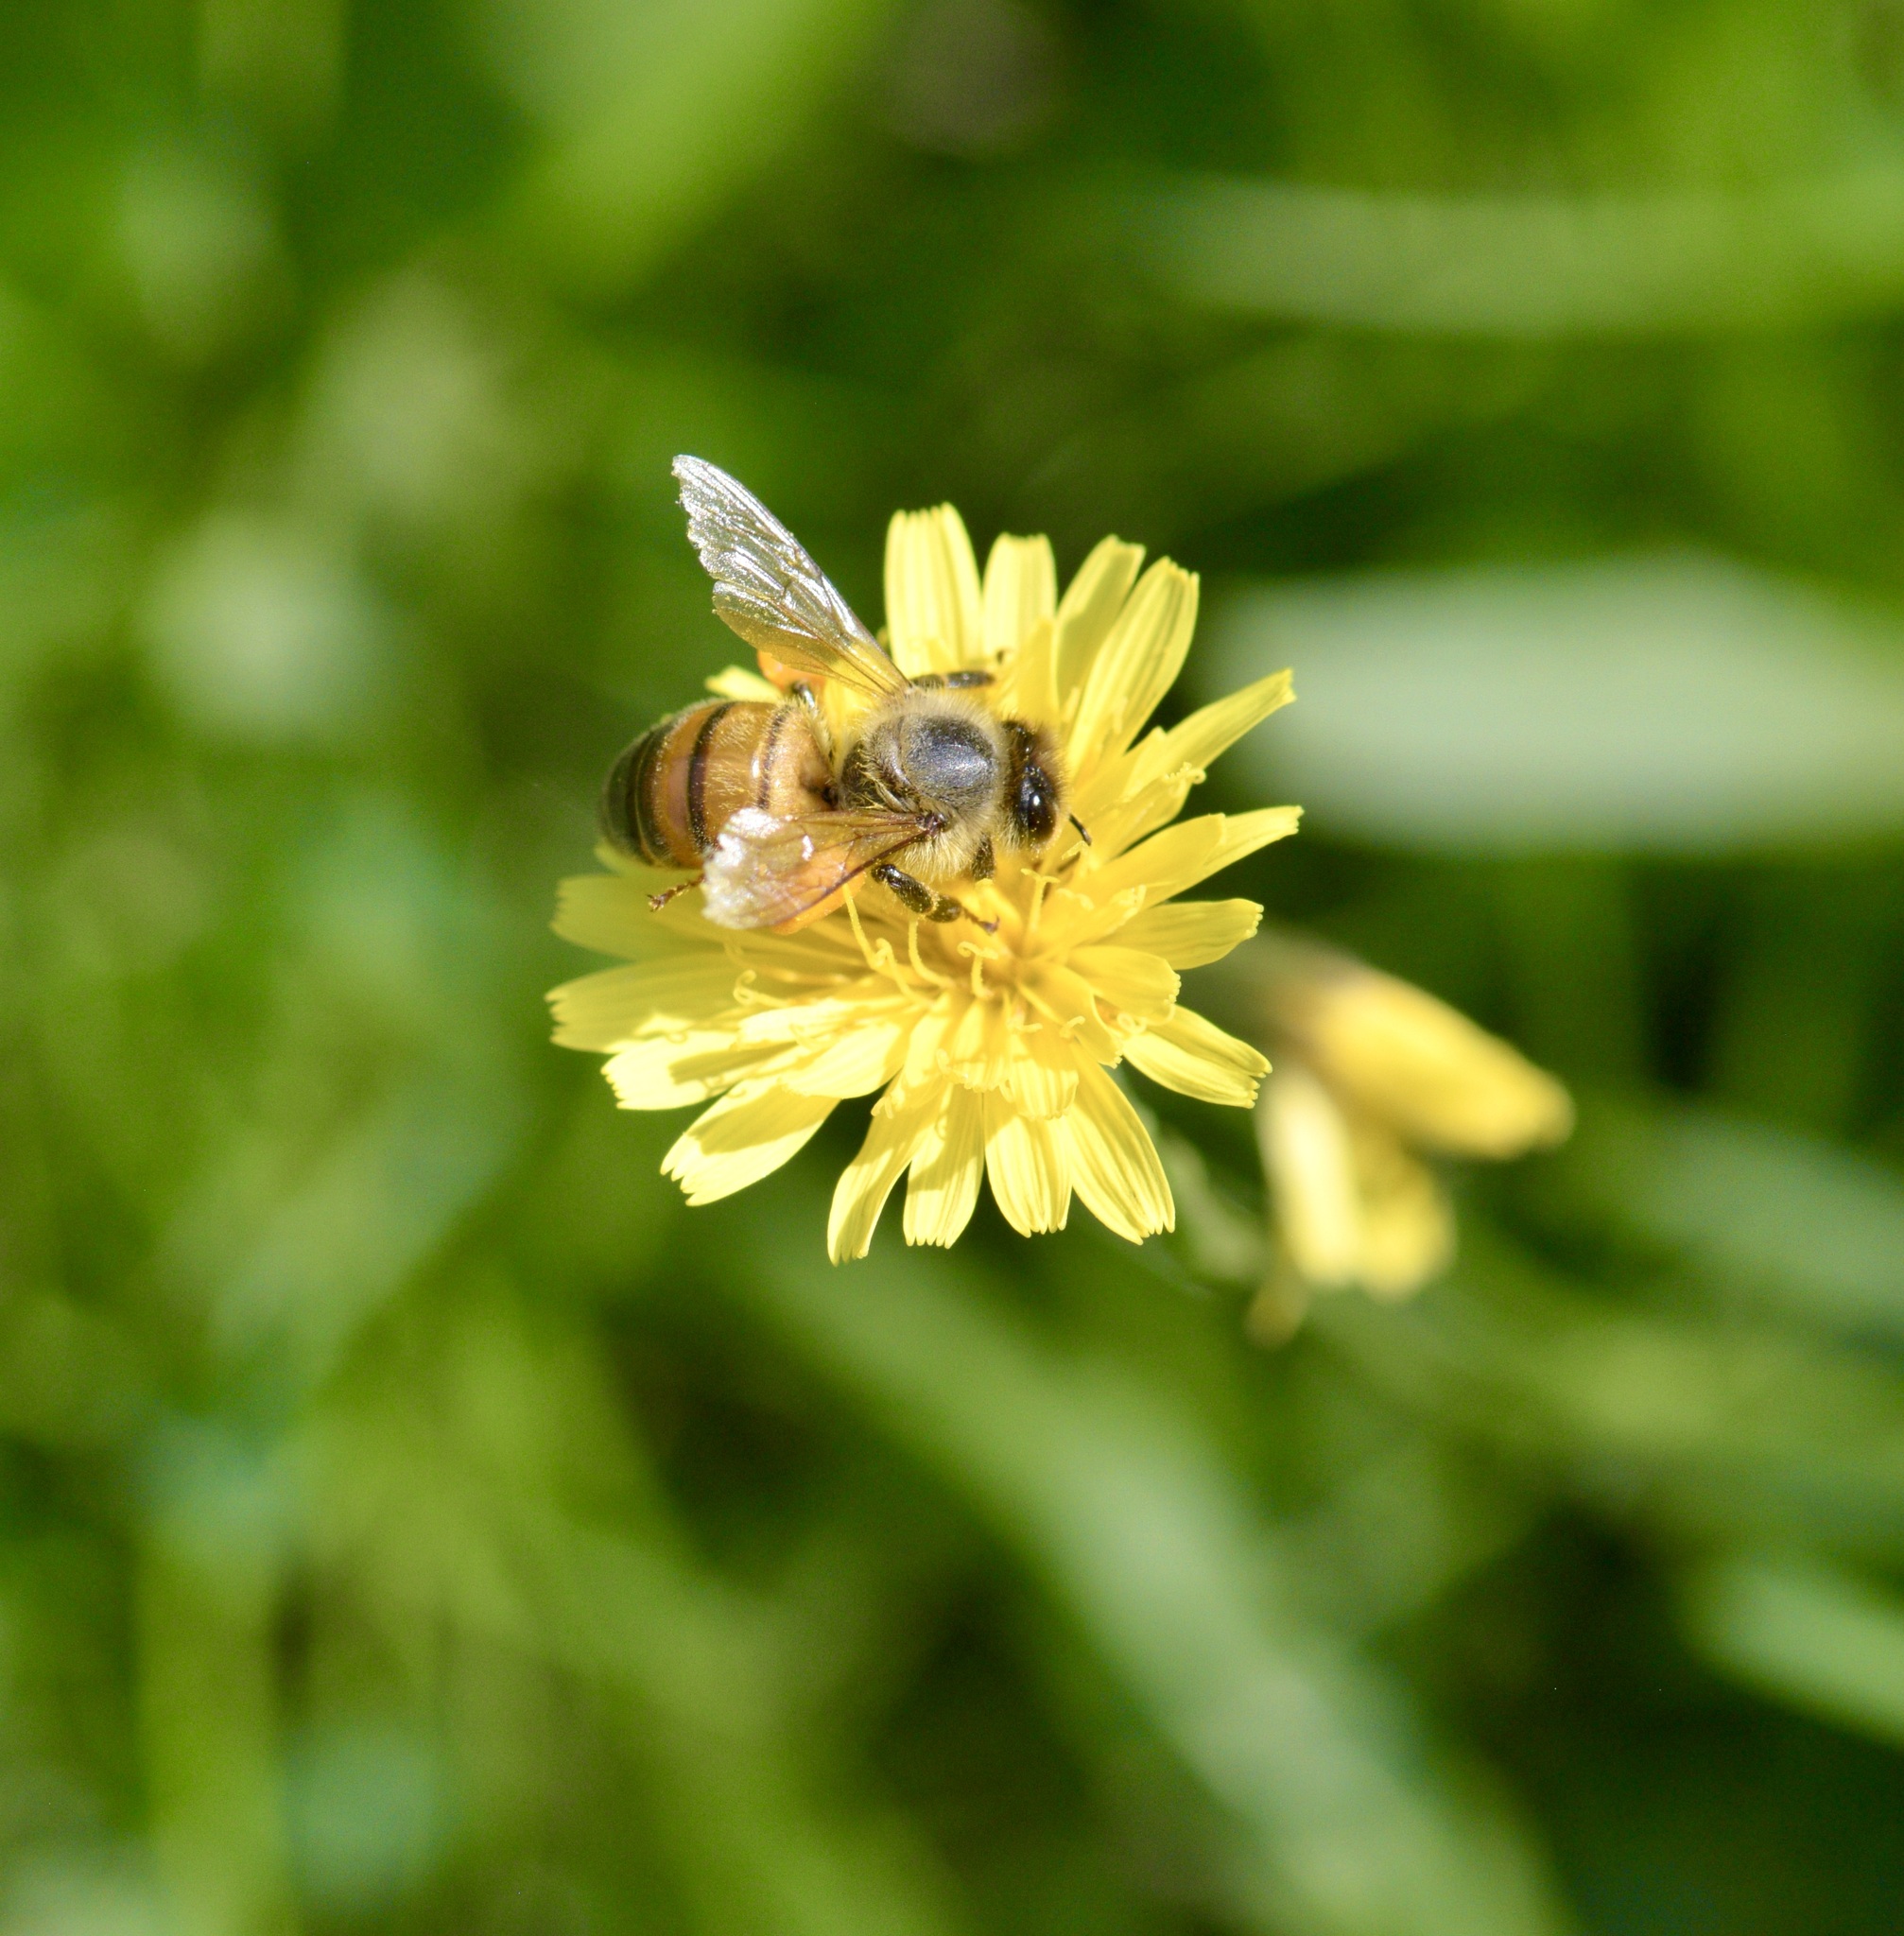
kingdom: Animalia
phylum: Arthropoda
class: Insecta
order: Hymenoptera
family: Apidae
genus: Apis
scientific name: Apis mellifera
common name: Honey bee
